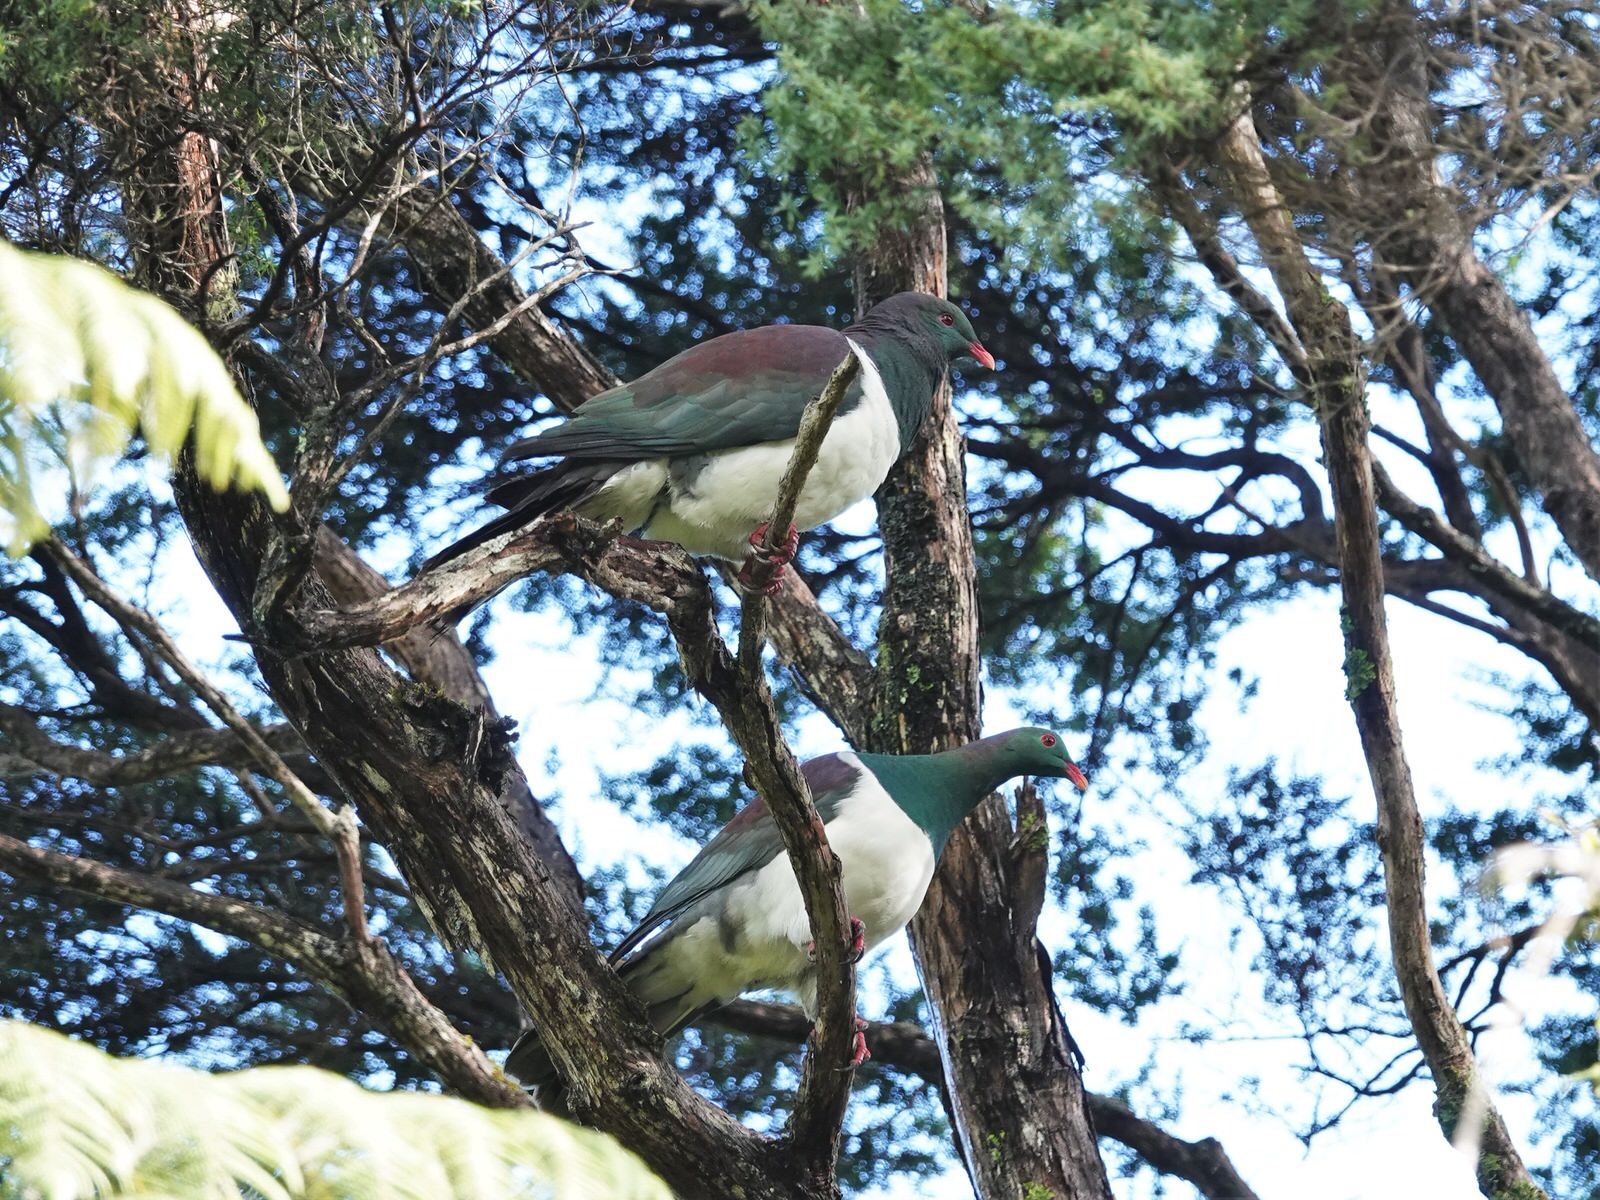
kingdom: Animalia
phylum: Chordata
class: Aves
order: Columbiformes
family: Columbidae
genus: Hemiphaga
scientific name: Hemiphaga novaeseelandiae
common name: New zealand pigeon
